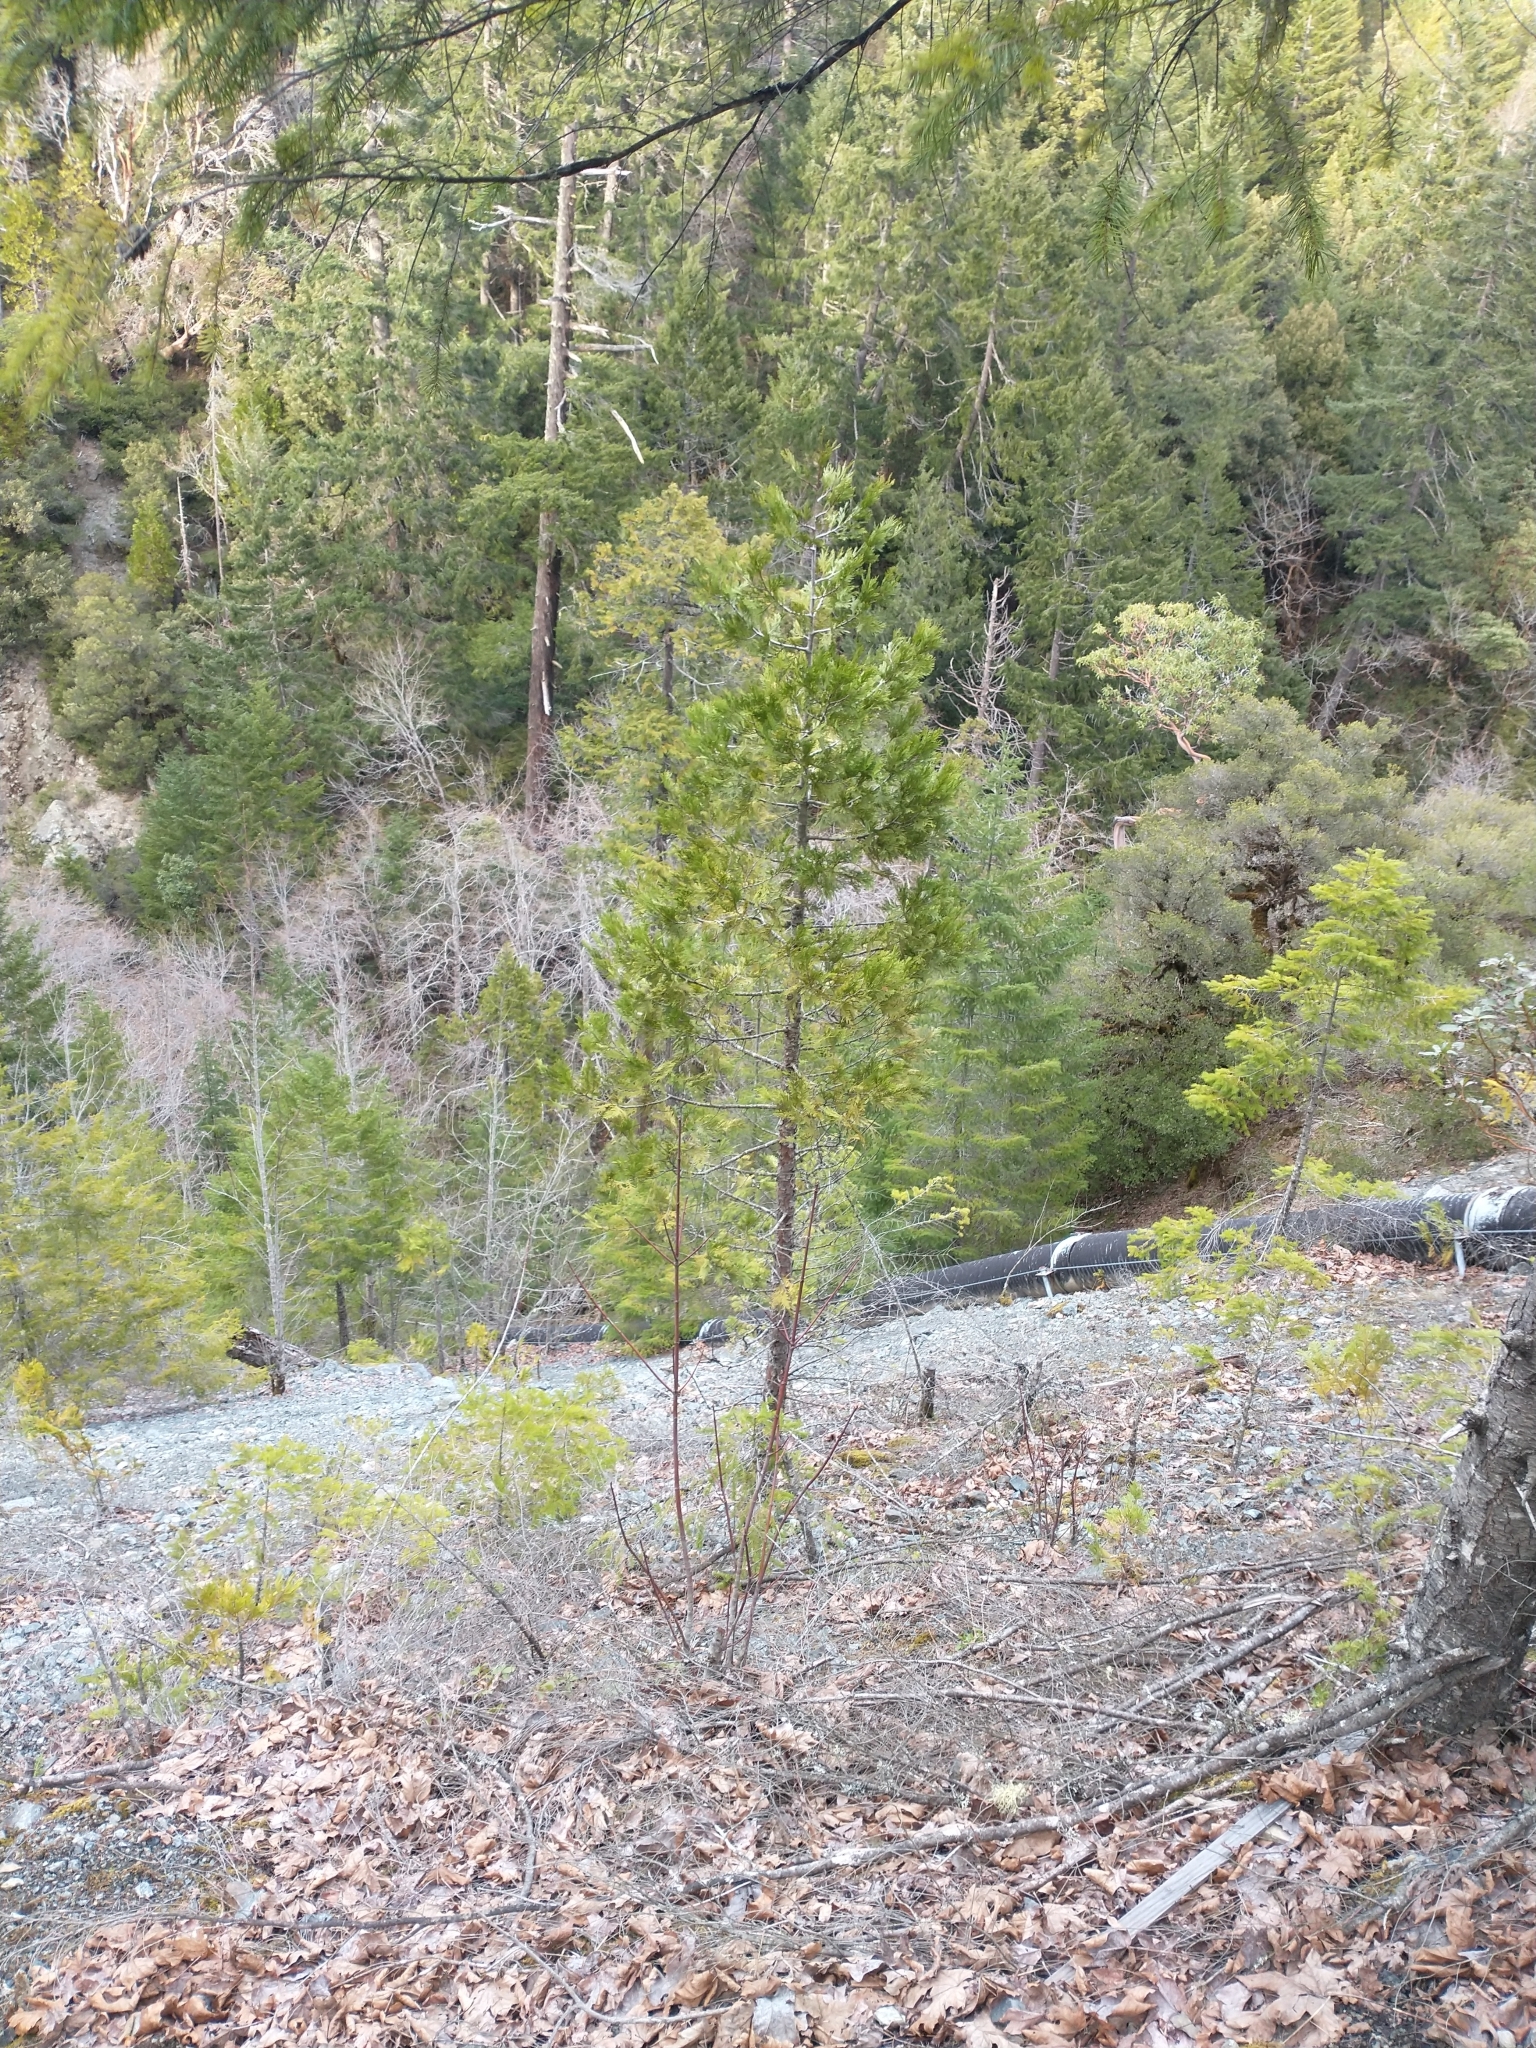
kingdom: Plantae
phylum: Tracheophyta
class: Pinopsida
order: Pinales
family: Cupressaceae
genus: Calocedrus
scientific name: Calocedrus decurrens
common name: Californian incense-cedar
